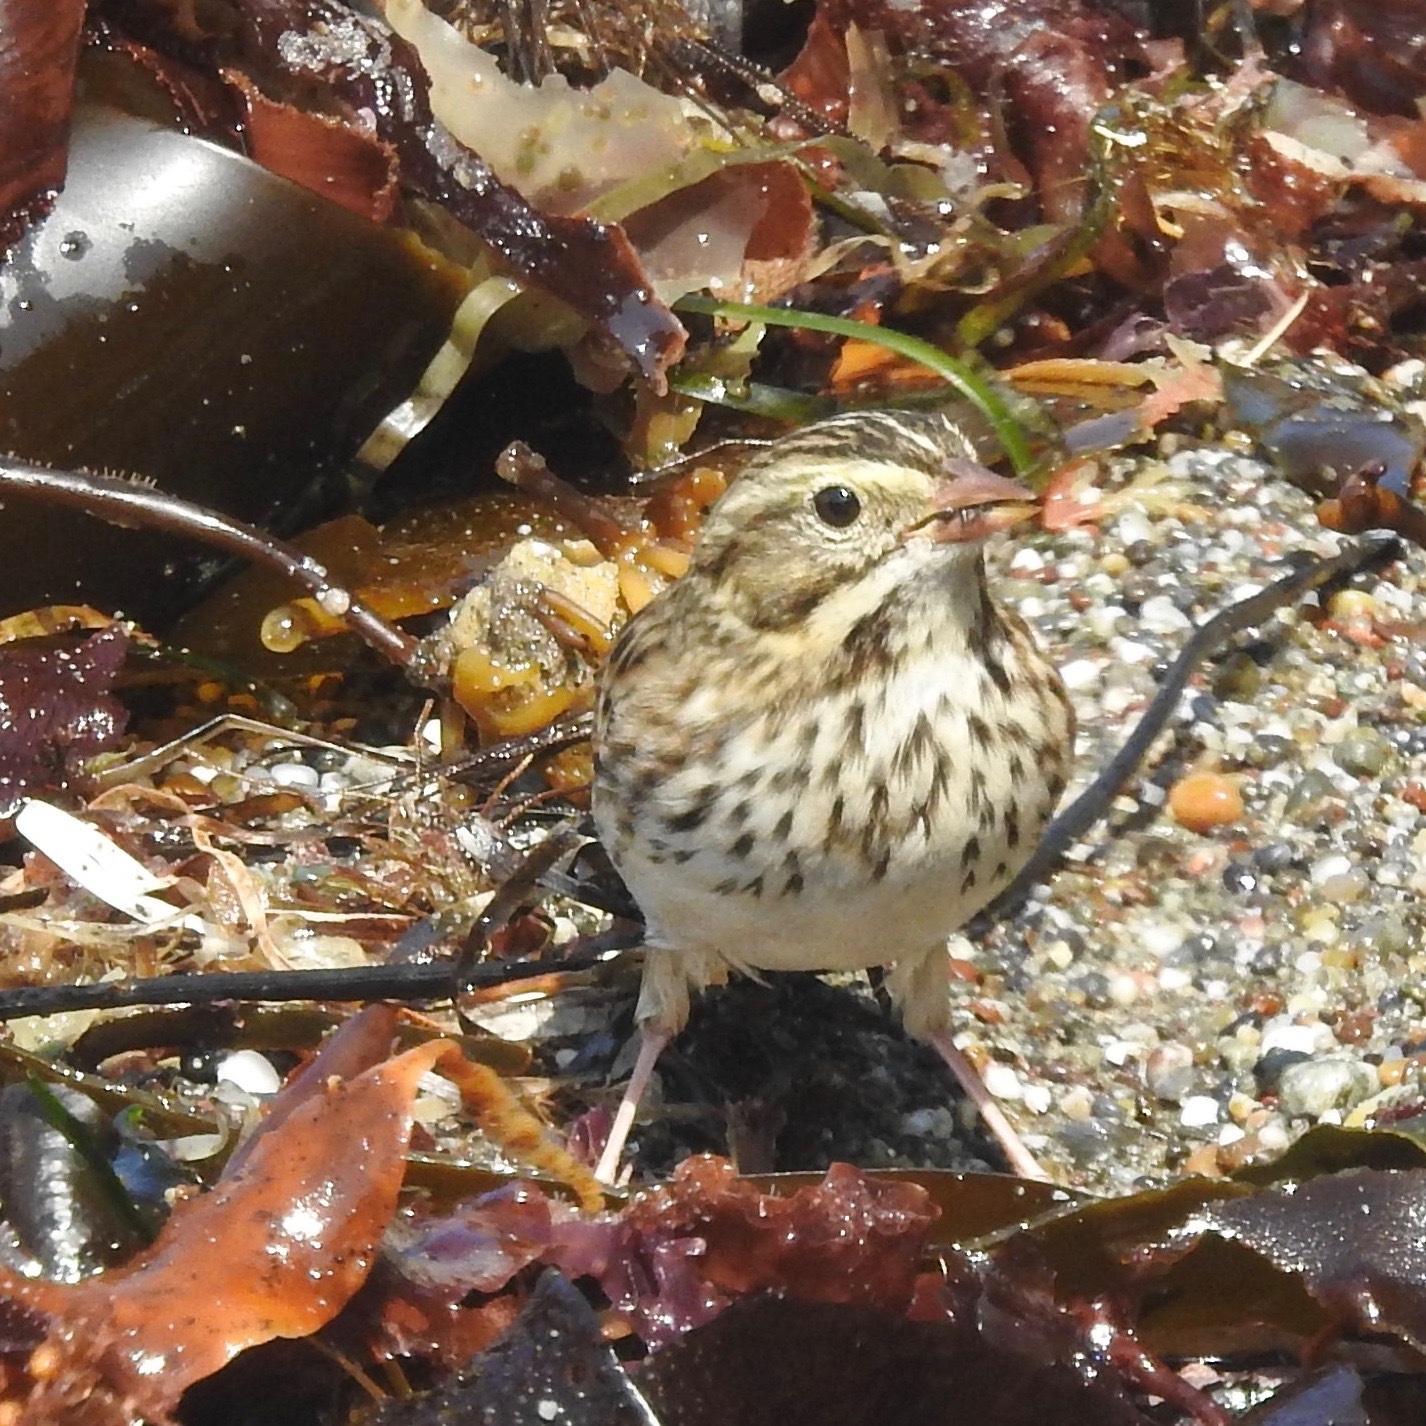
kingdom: Animalia
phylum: Chordata
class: Aves
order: Passeriformes
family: Passerellidae
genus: Passerculus
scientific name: Passerculus sandwichensis
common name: Savannah sparrow
